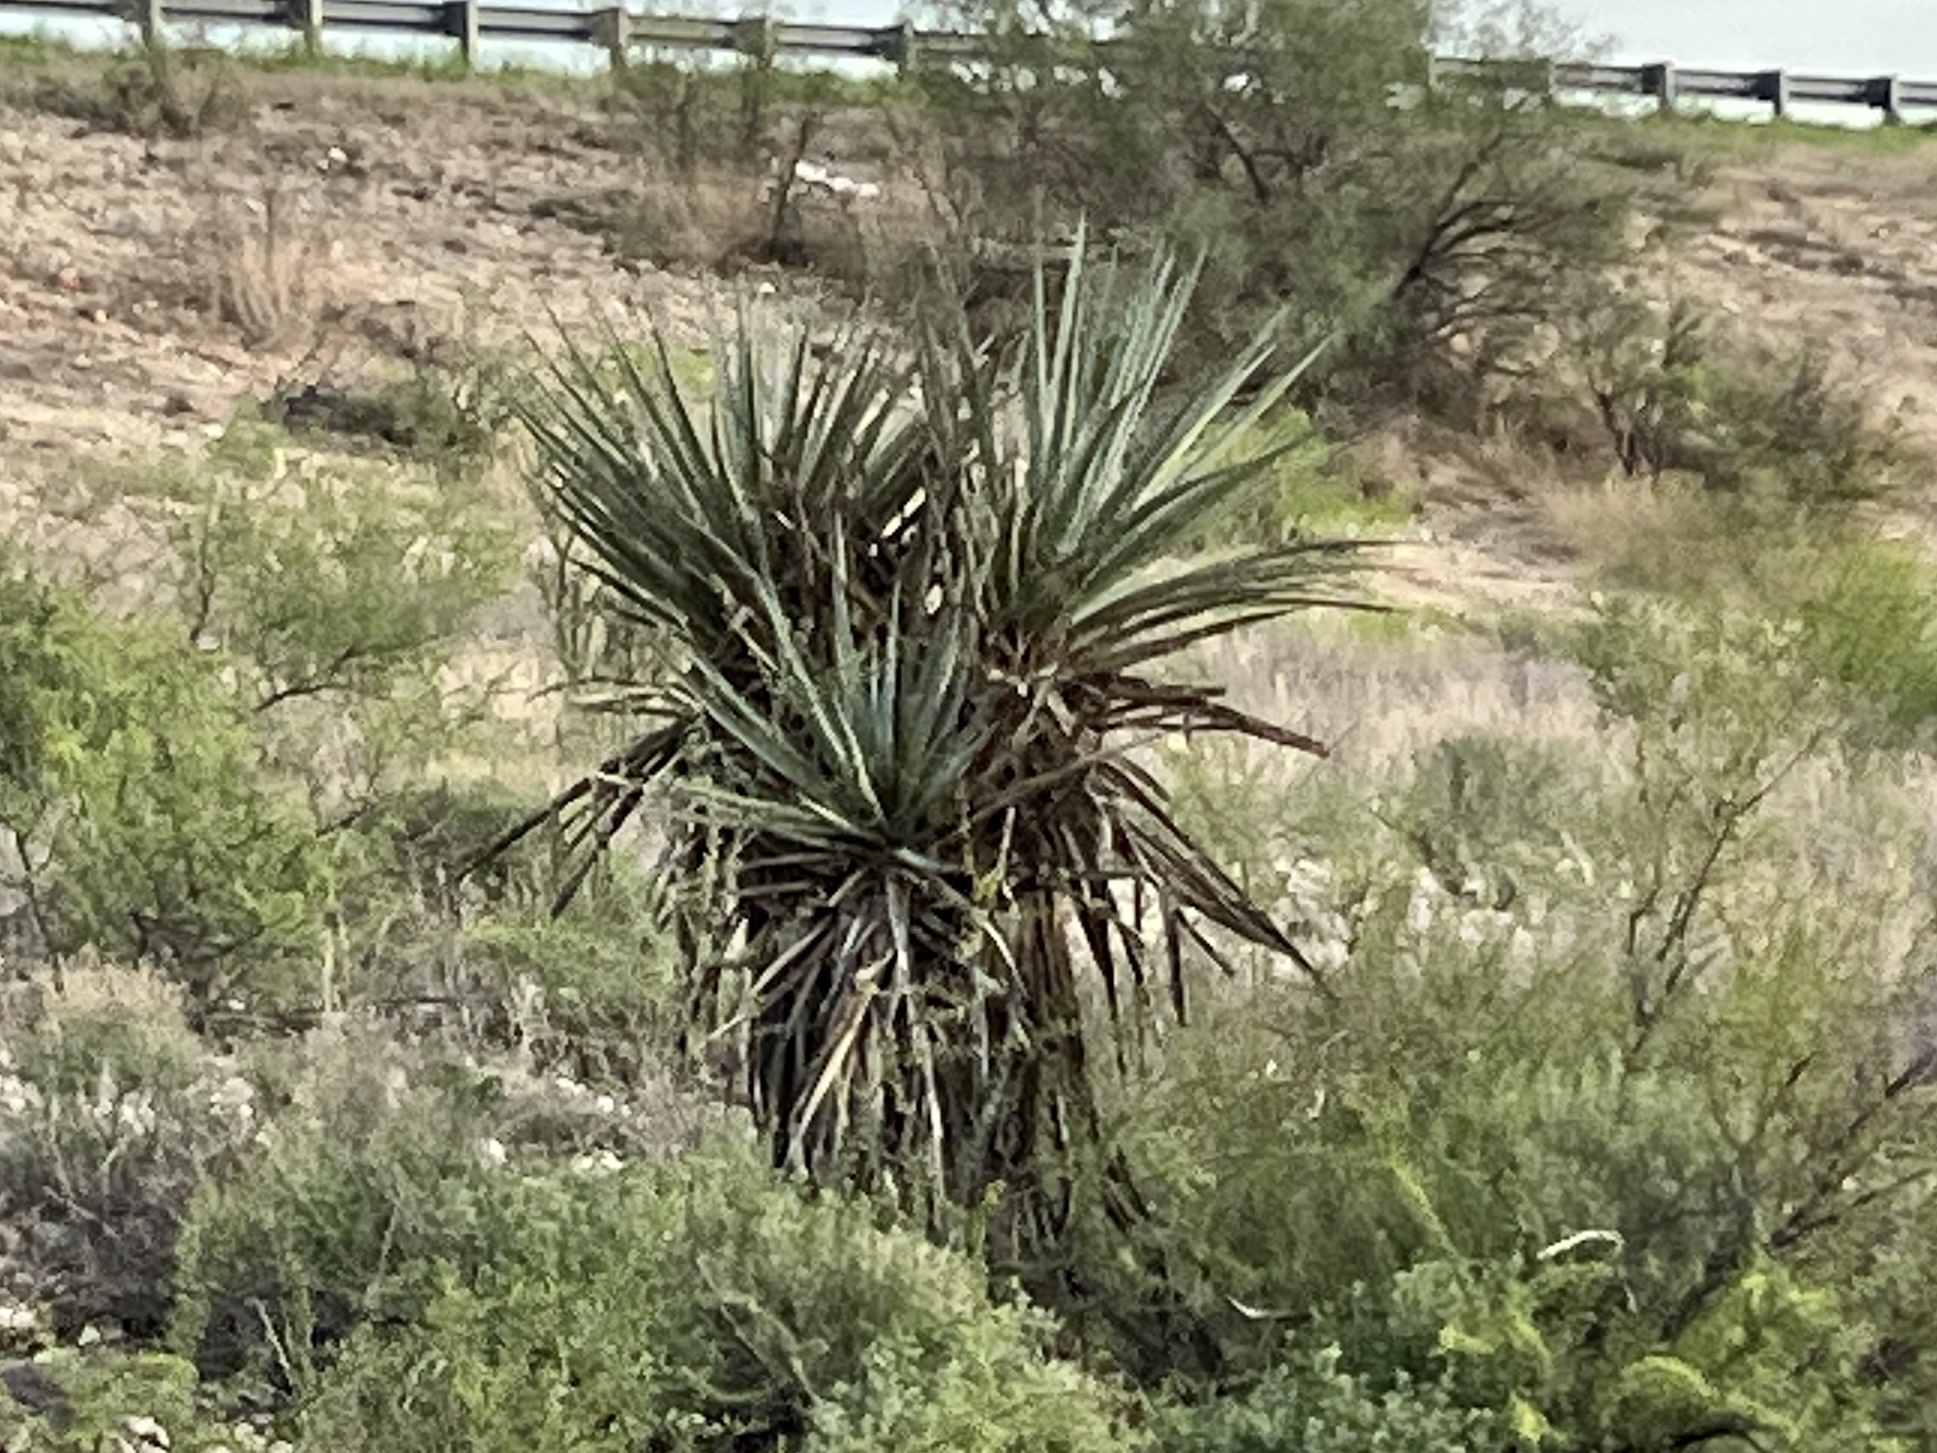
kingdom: Plantae
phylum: Tracheophyta
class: Liliopsida
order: Asparagales
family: Asparagaceae
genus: Yucca
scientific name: Yucca treculiana
